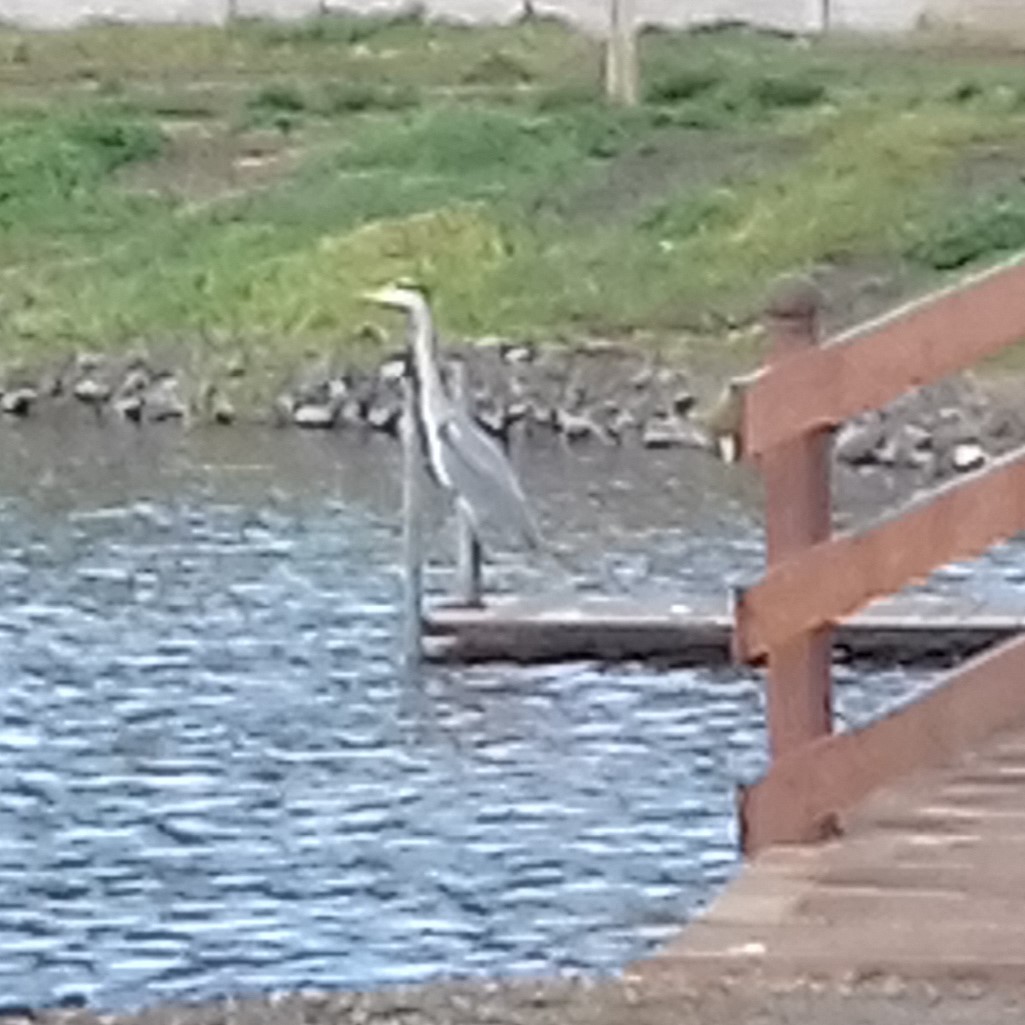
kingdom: Animalia
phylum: Chordata
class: Aves
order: Pelecaniformes
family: Ardeidae
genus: Ardea
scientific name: Ardea cinerea
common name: Grey heron
